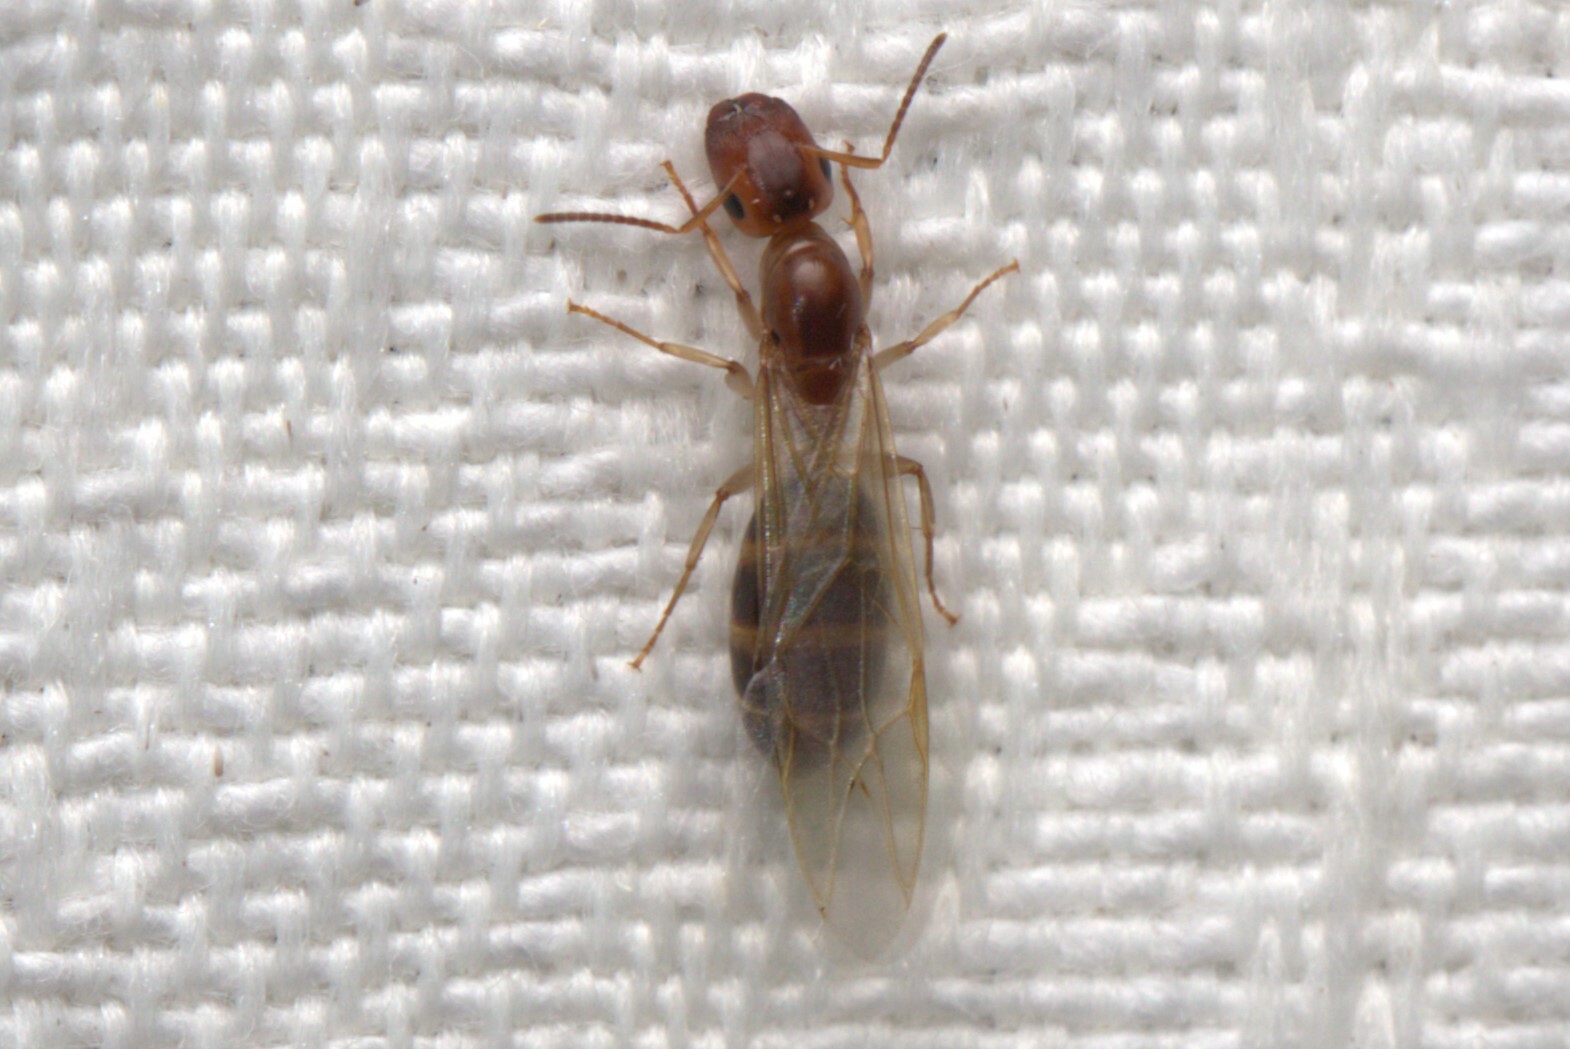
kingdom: Animalia
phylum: Arthropoda
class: Insecta
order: Hymenoptera
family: Formicidae
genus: Colobopsis
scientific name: Colobopsis
